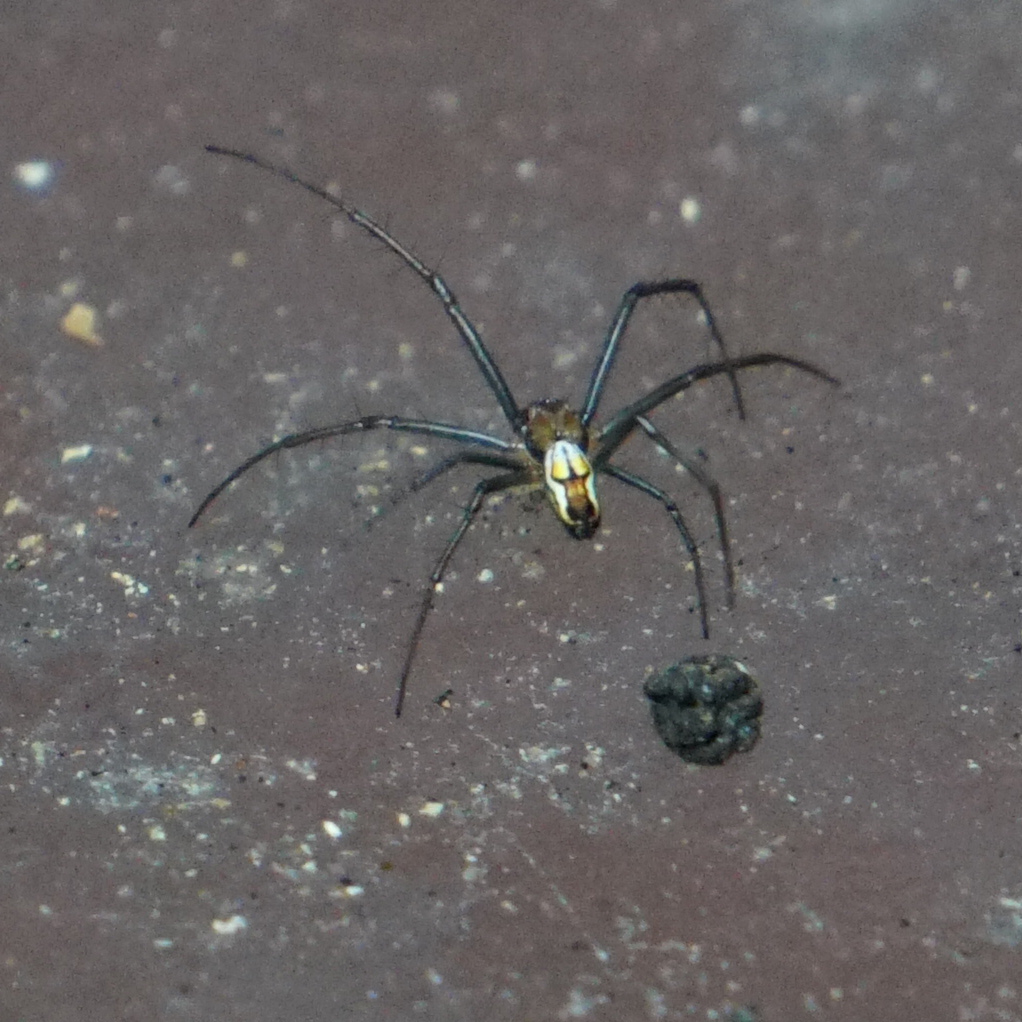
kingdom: Animalia
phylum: Arthropoda
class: Arachnida
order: Araneae
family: Araneidae
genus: Mecynogea
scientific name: Mecynogea lemniscata
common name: Orb weavers
